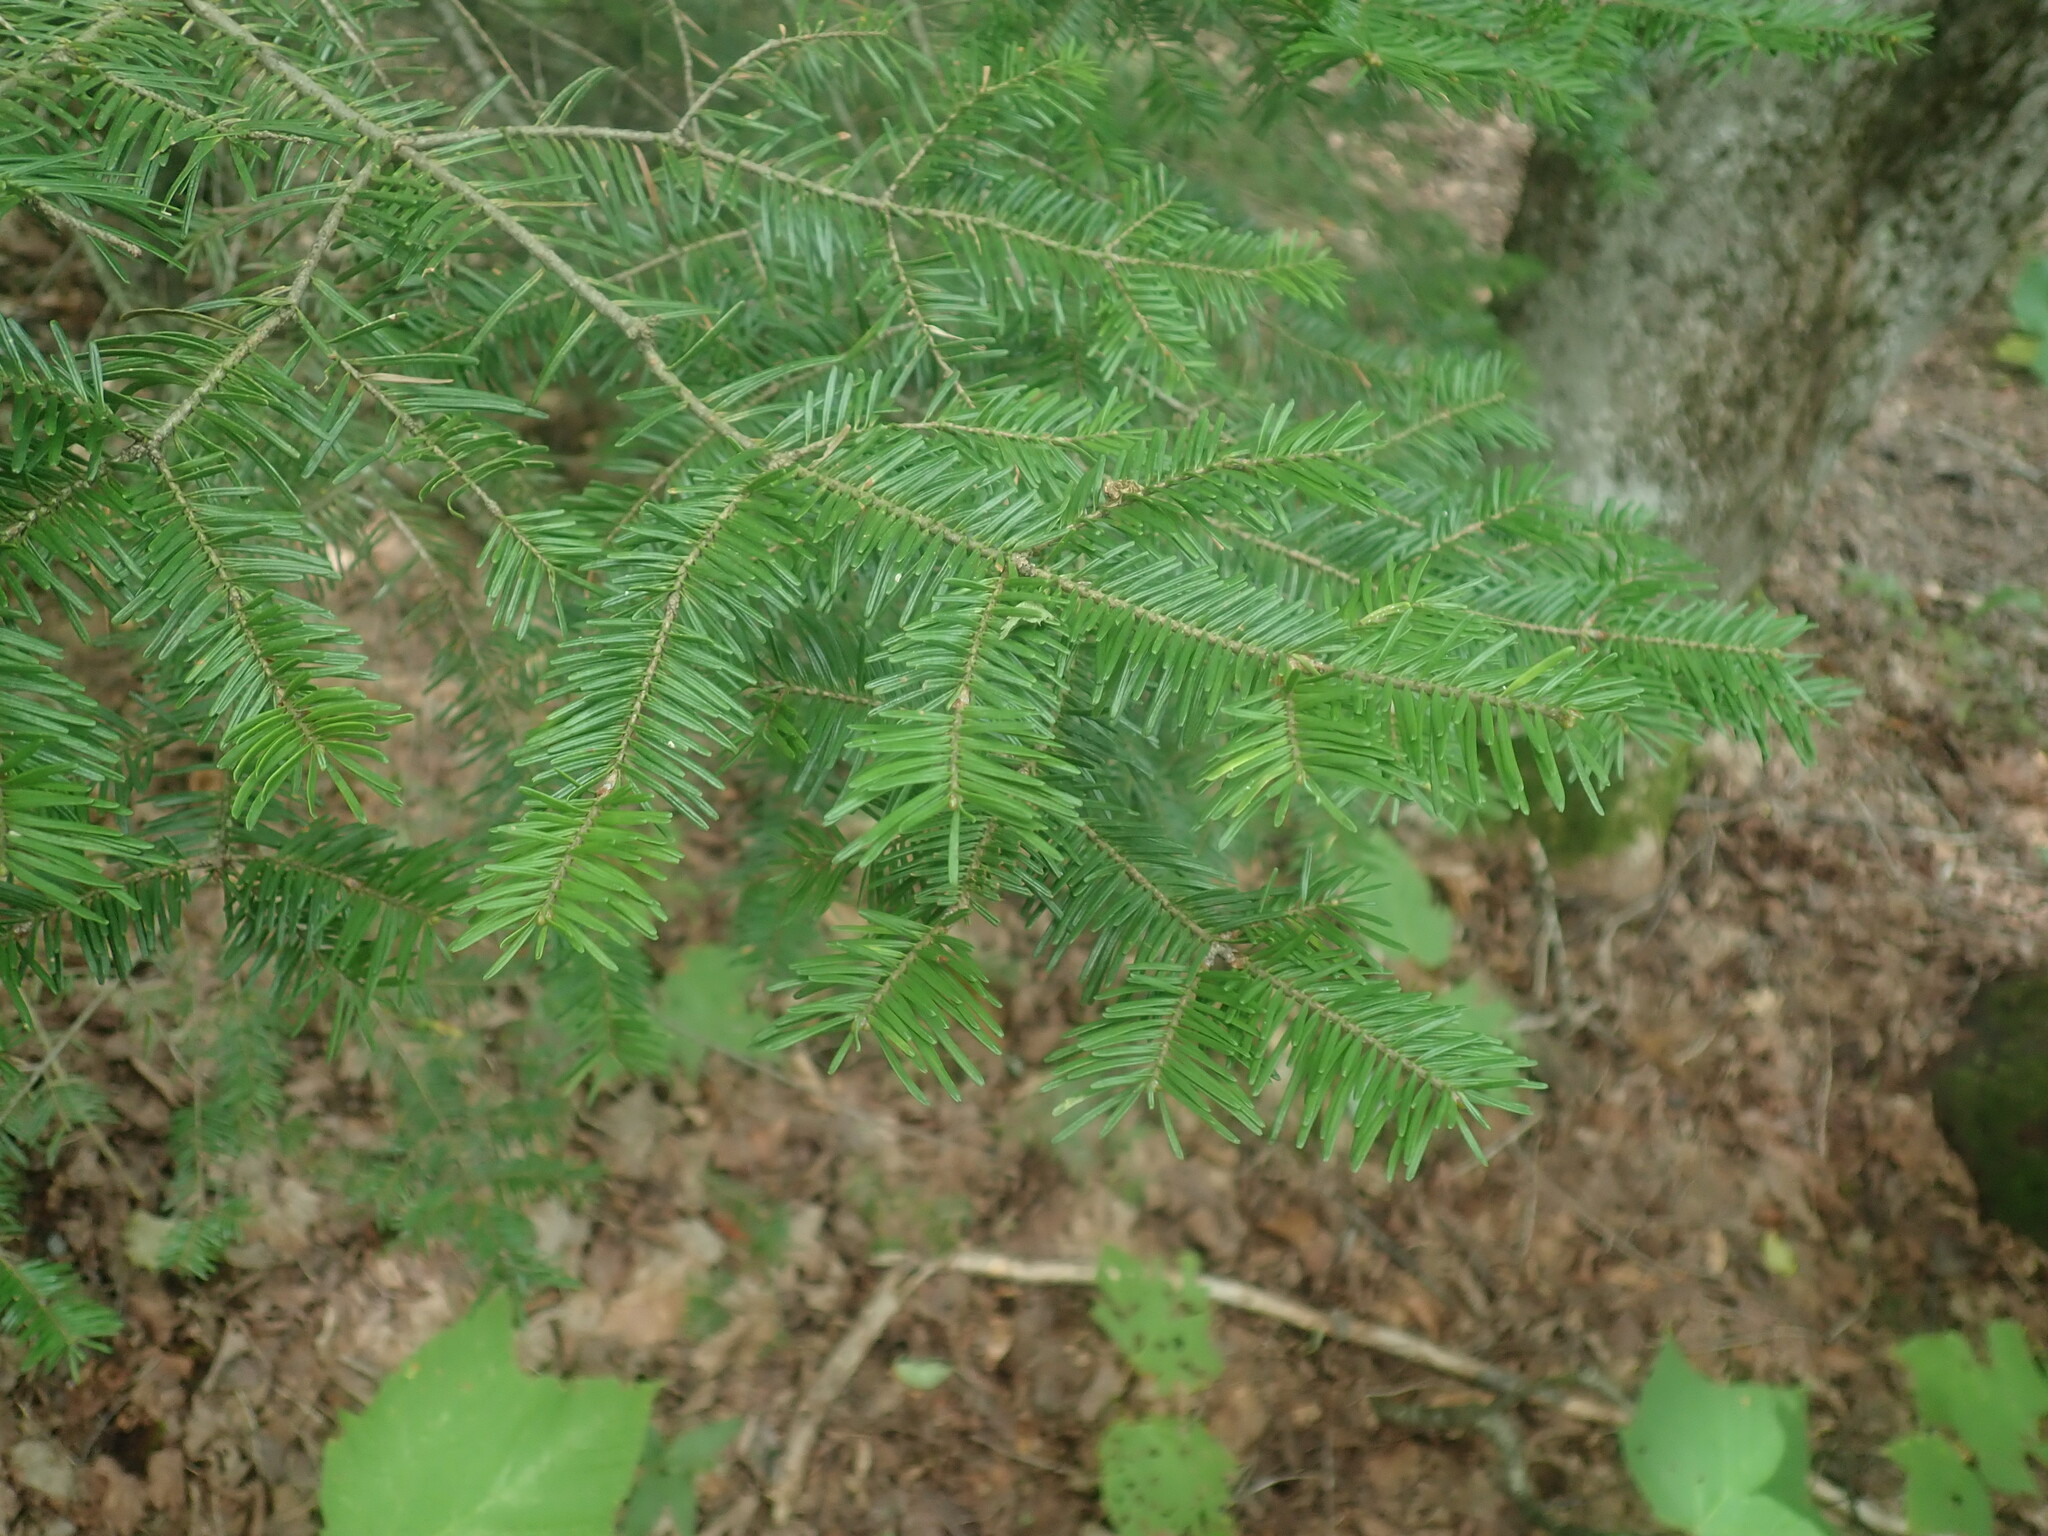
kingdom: Plantae
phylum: Tracheophyta
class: Pinopsida
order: Pinales
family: Pinaceae
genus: Abies
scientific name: Abies balsamea
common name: Balsam fir
